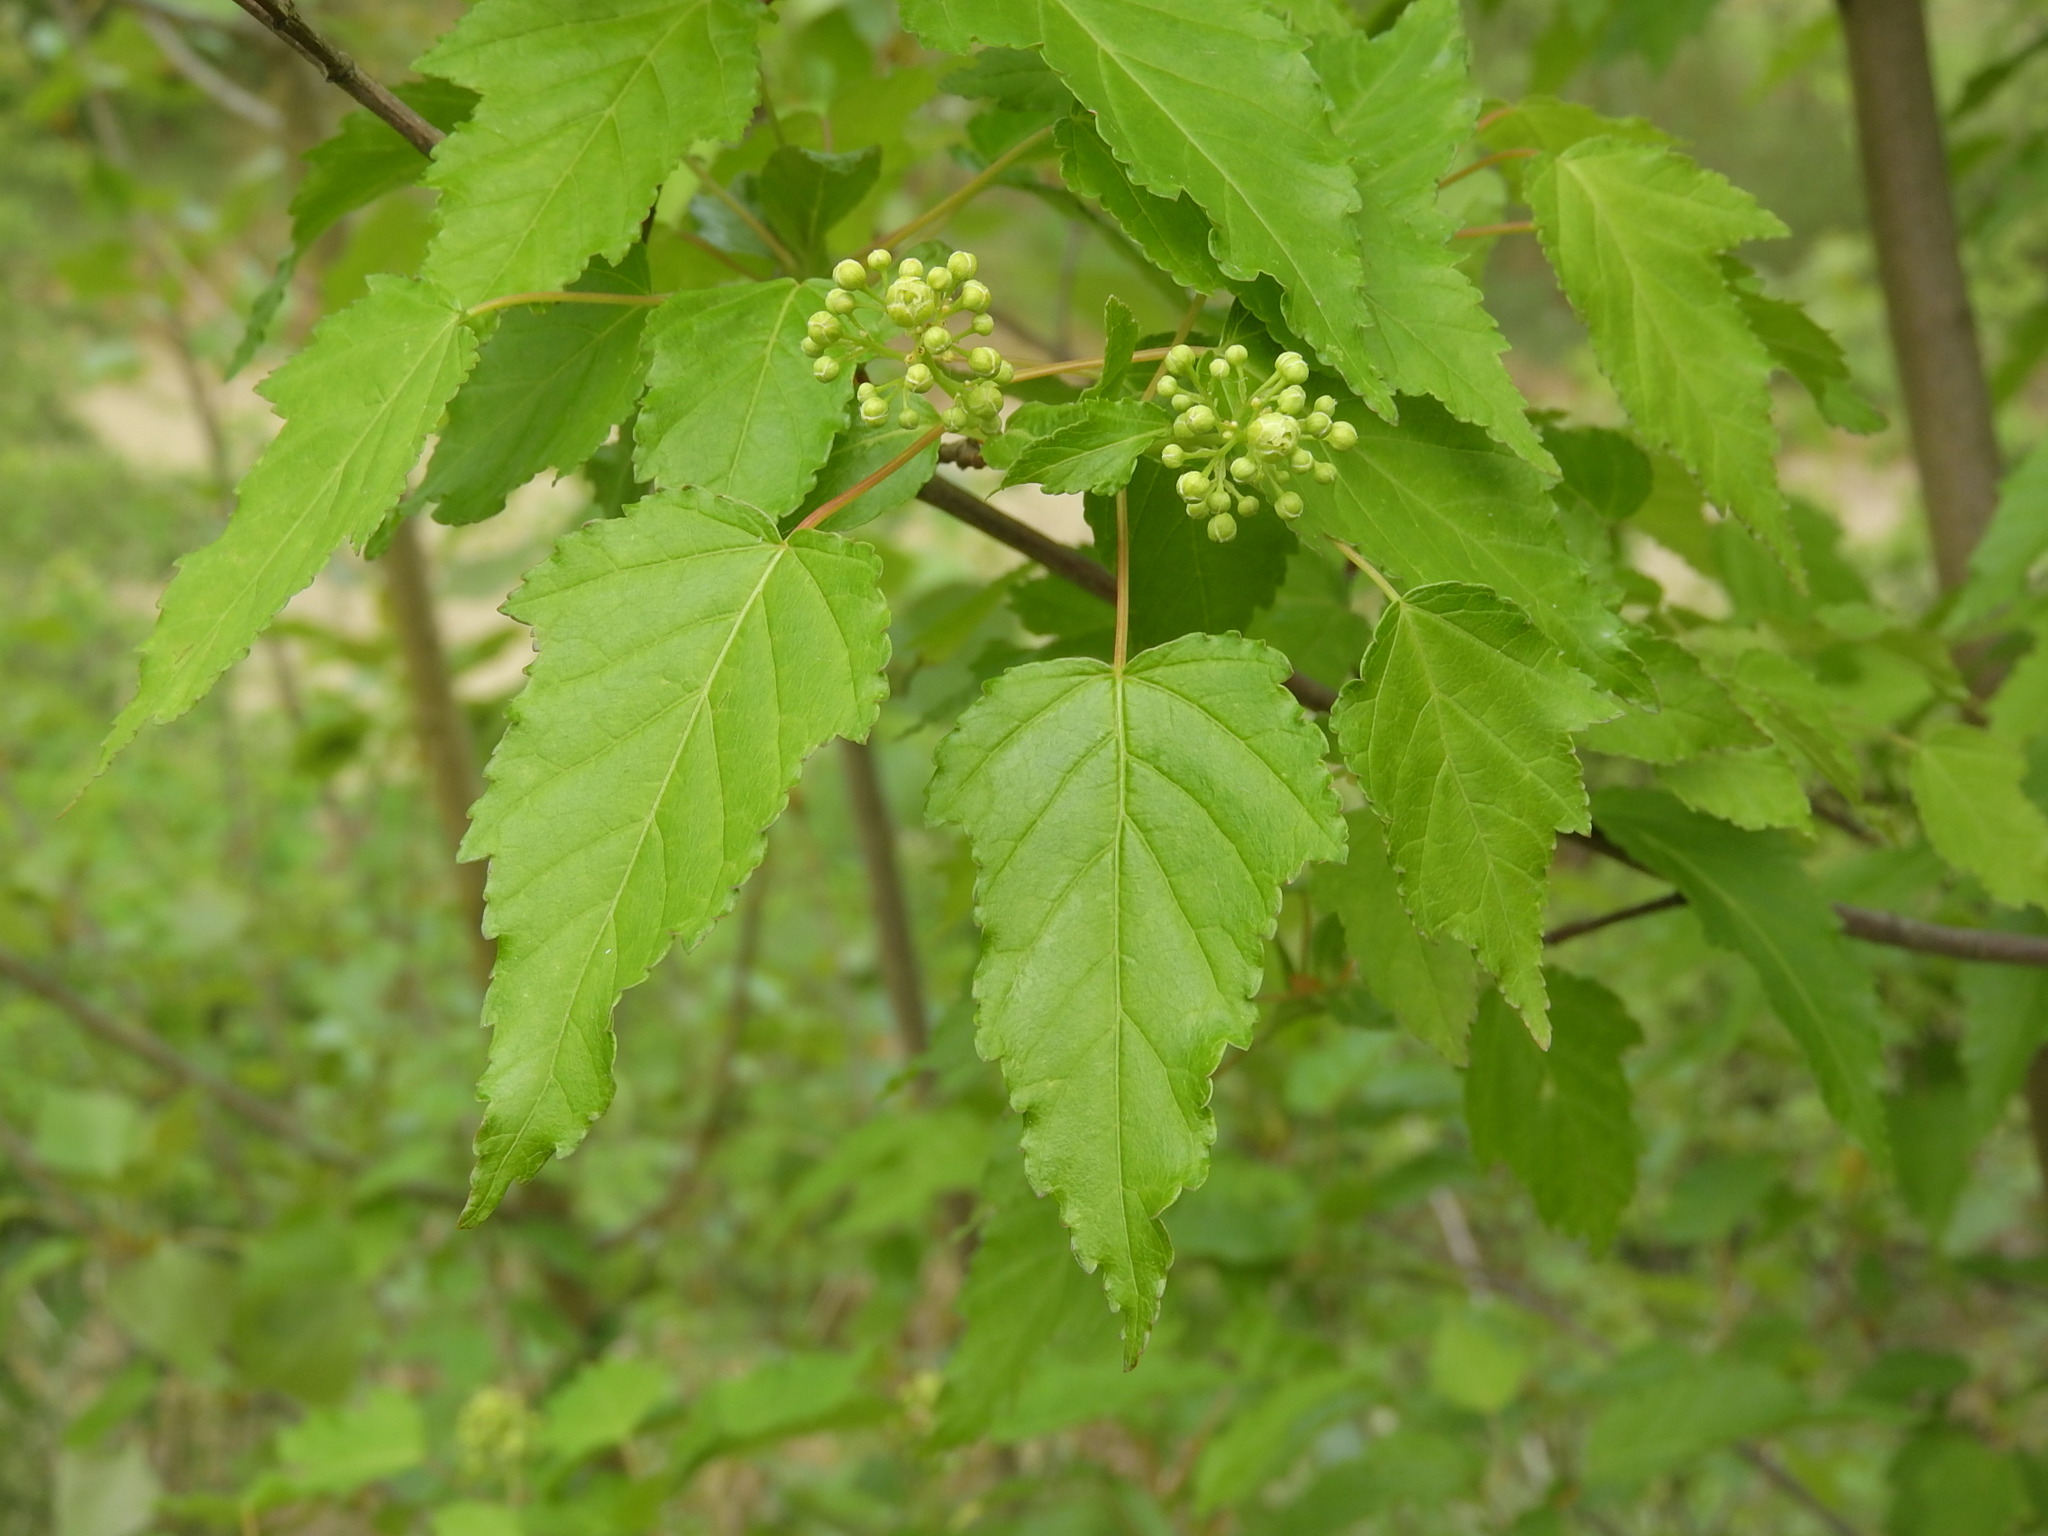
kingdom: Plantae
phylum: Tracheophyta
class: Magnoliopsida
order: Sapindales
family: Sapindaceae
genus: Acer
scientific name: Acer tataricum
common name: Tartar maple
